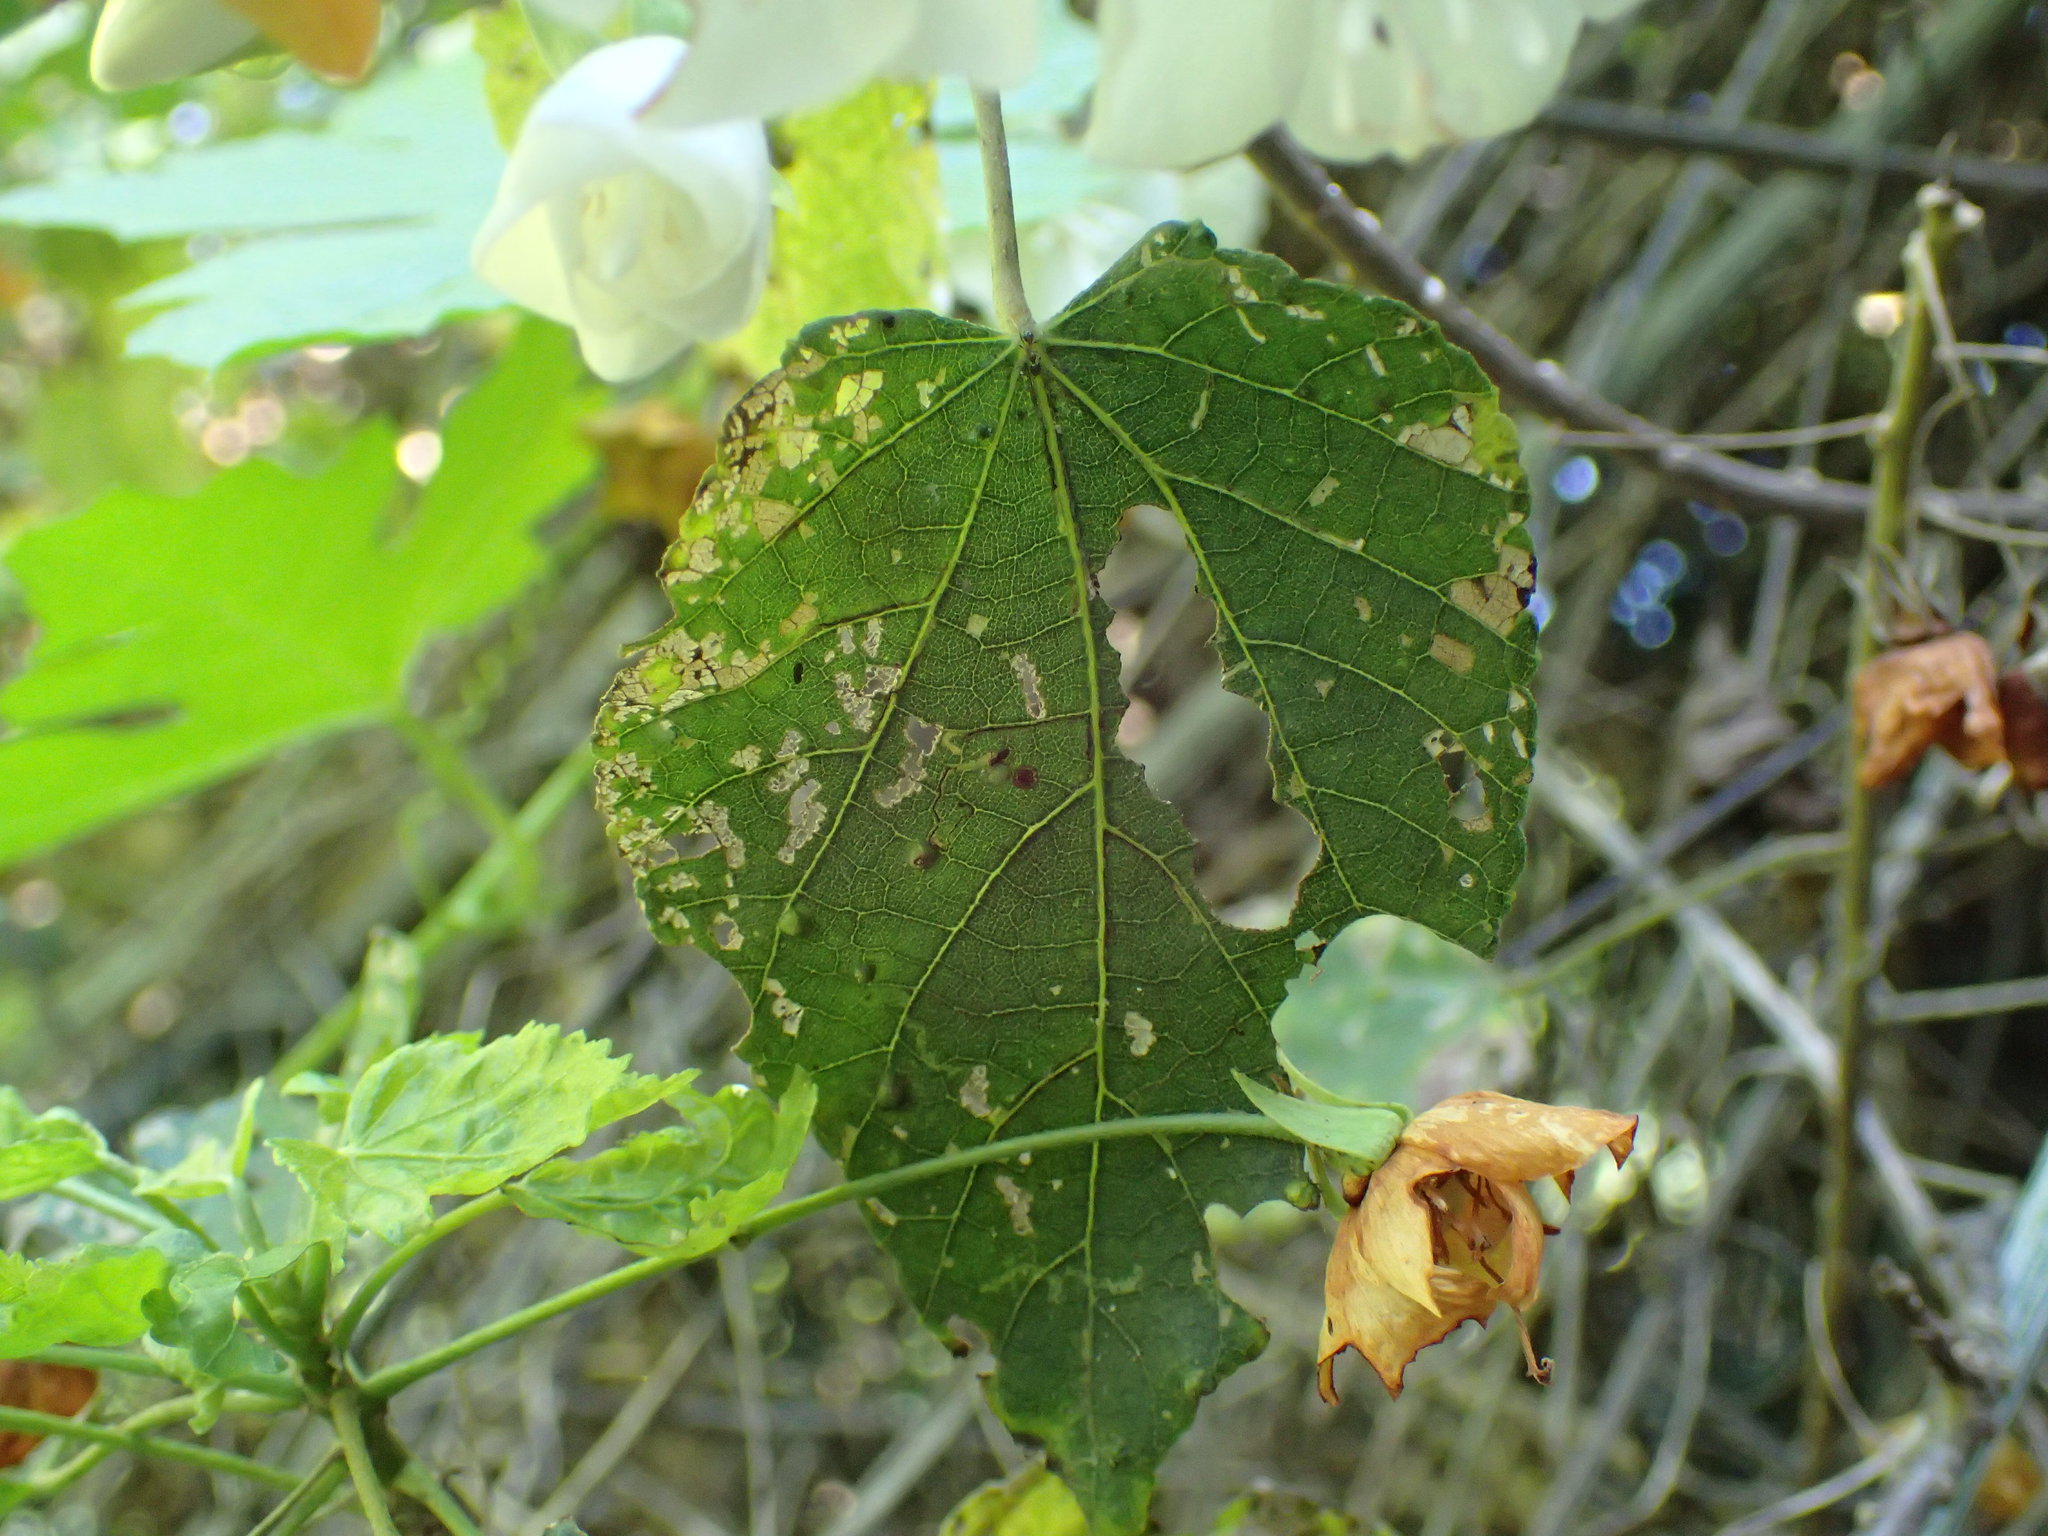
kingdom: Plantae
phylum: Tracheophyta
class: Magnoliopsida
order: Malvales
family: Malvaceae
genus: Dombeya
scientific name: Dombeya tiliacea
